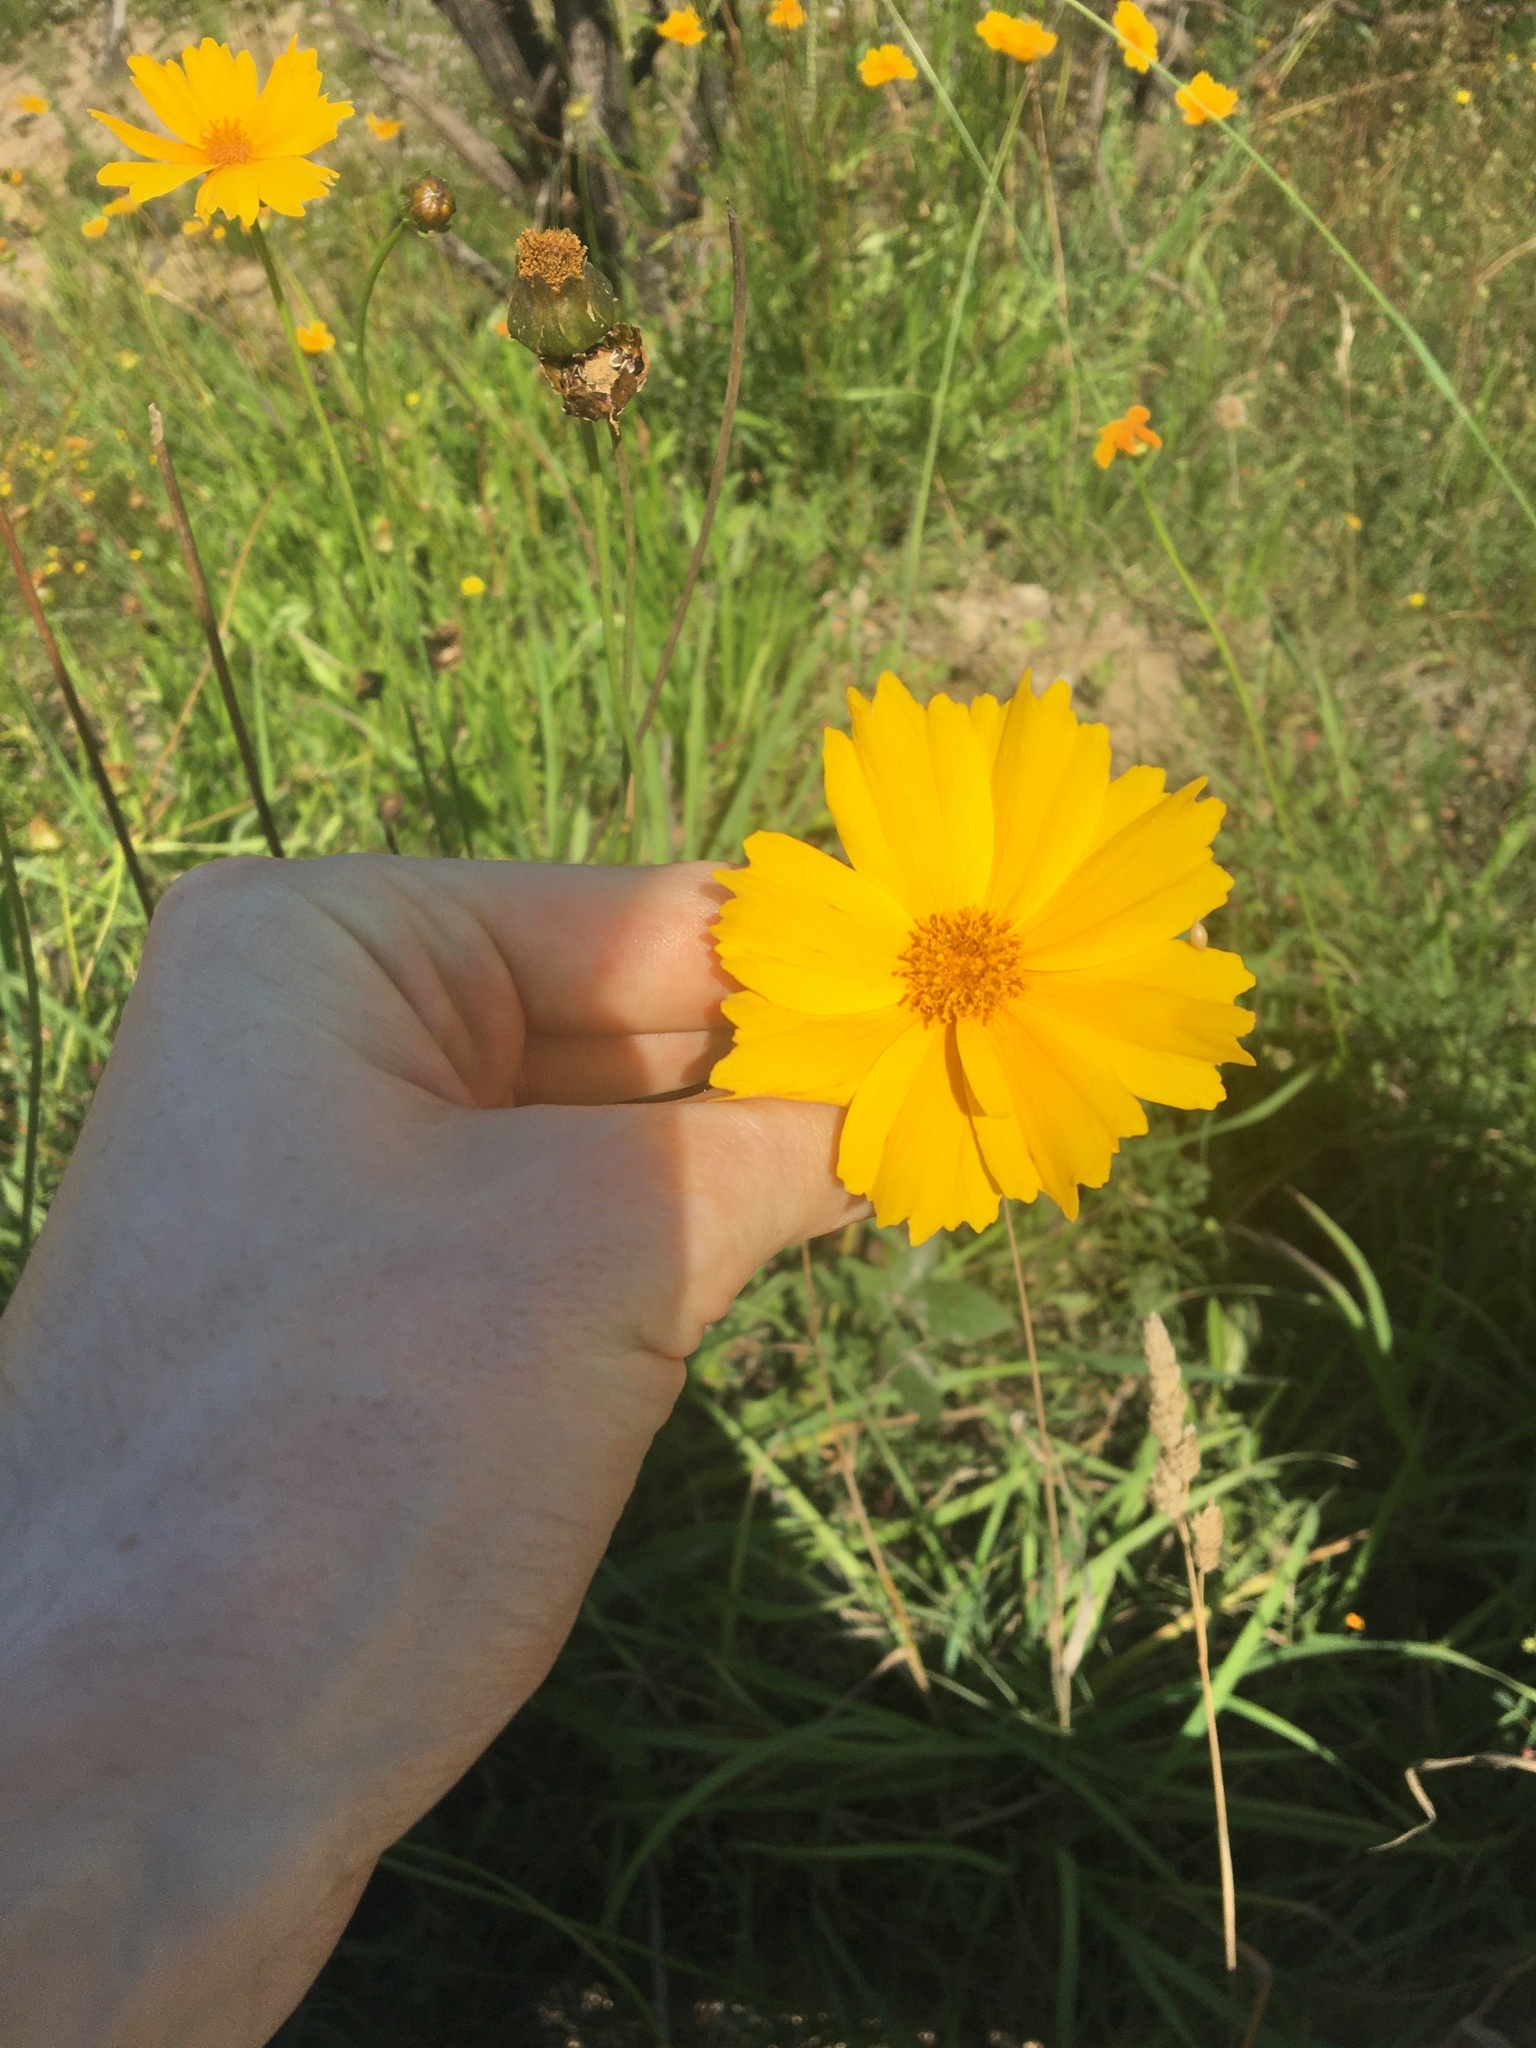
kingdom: Plantae
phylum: Tracheophyta
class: Magnoliopsida
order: Asterales
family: Asteraceae
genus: Coreopsis
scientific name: Coreopsis lanceolata
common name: Garden coreopsis
